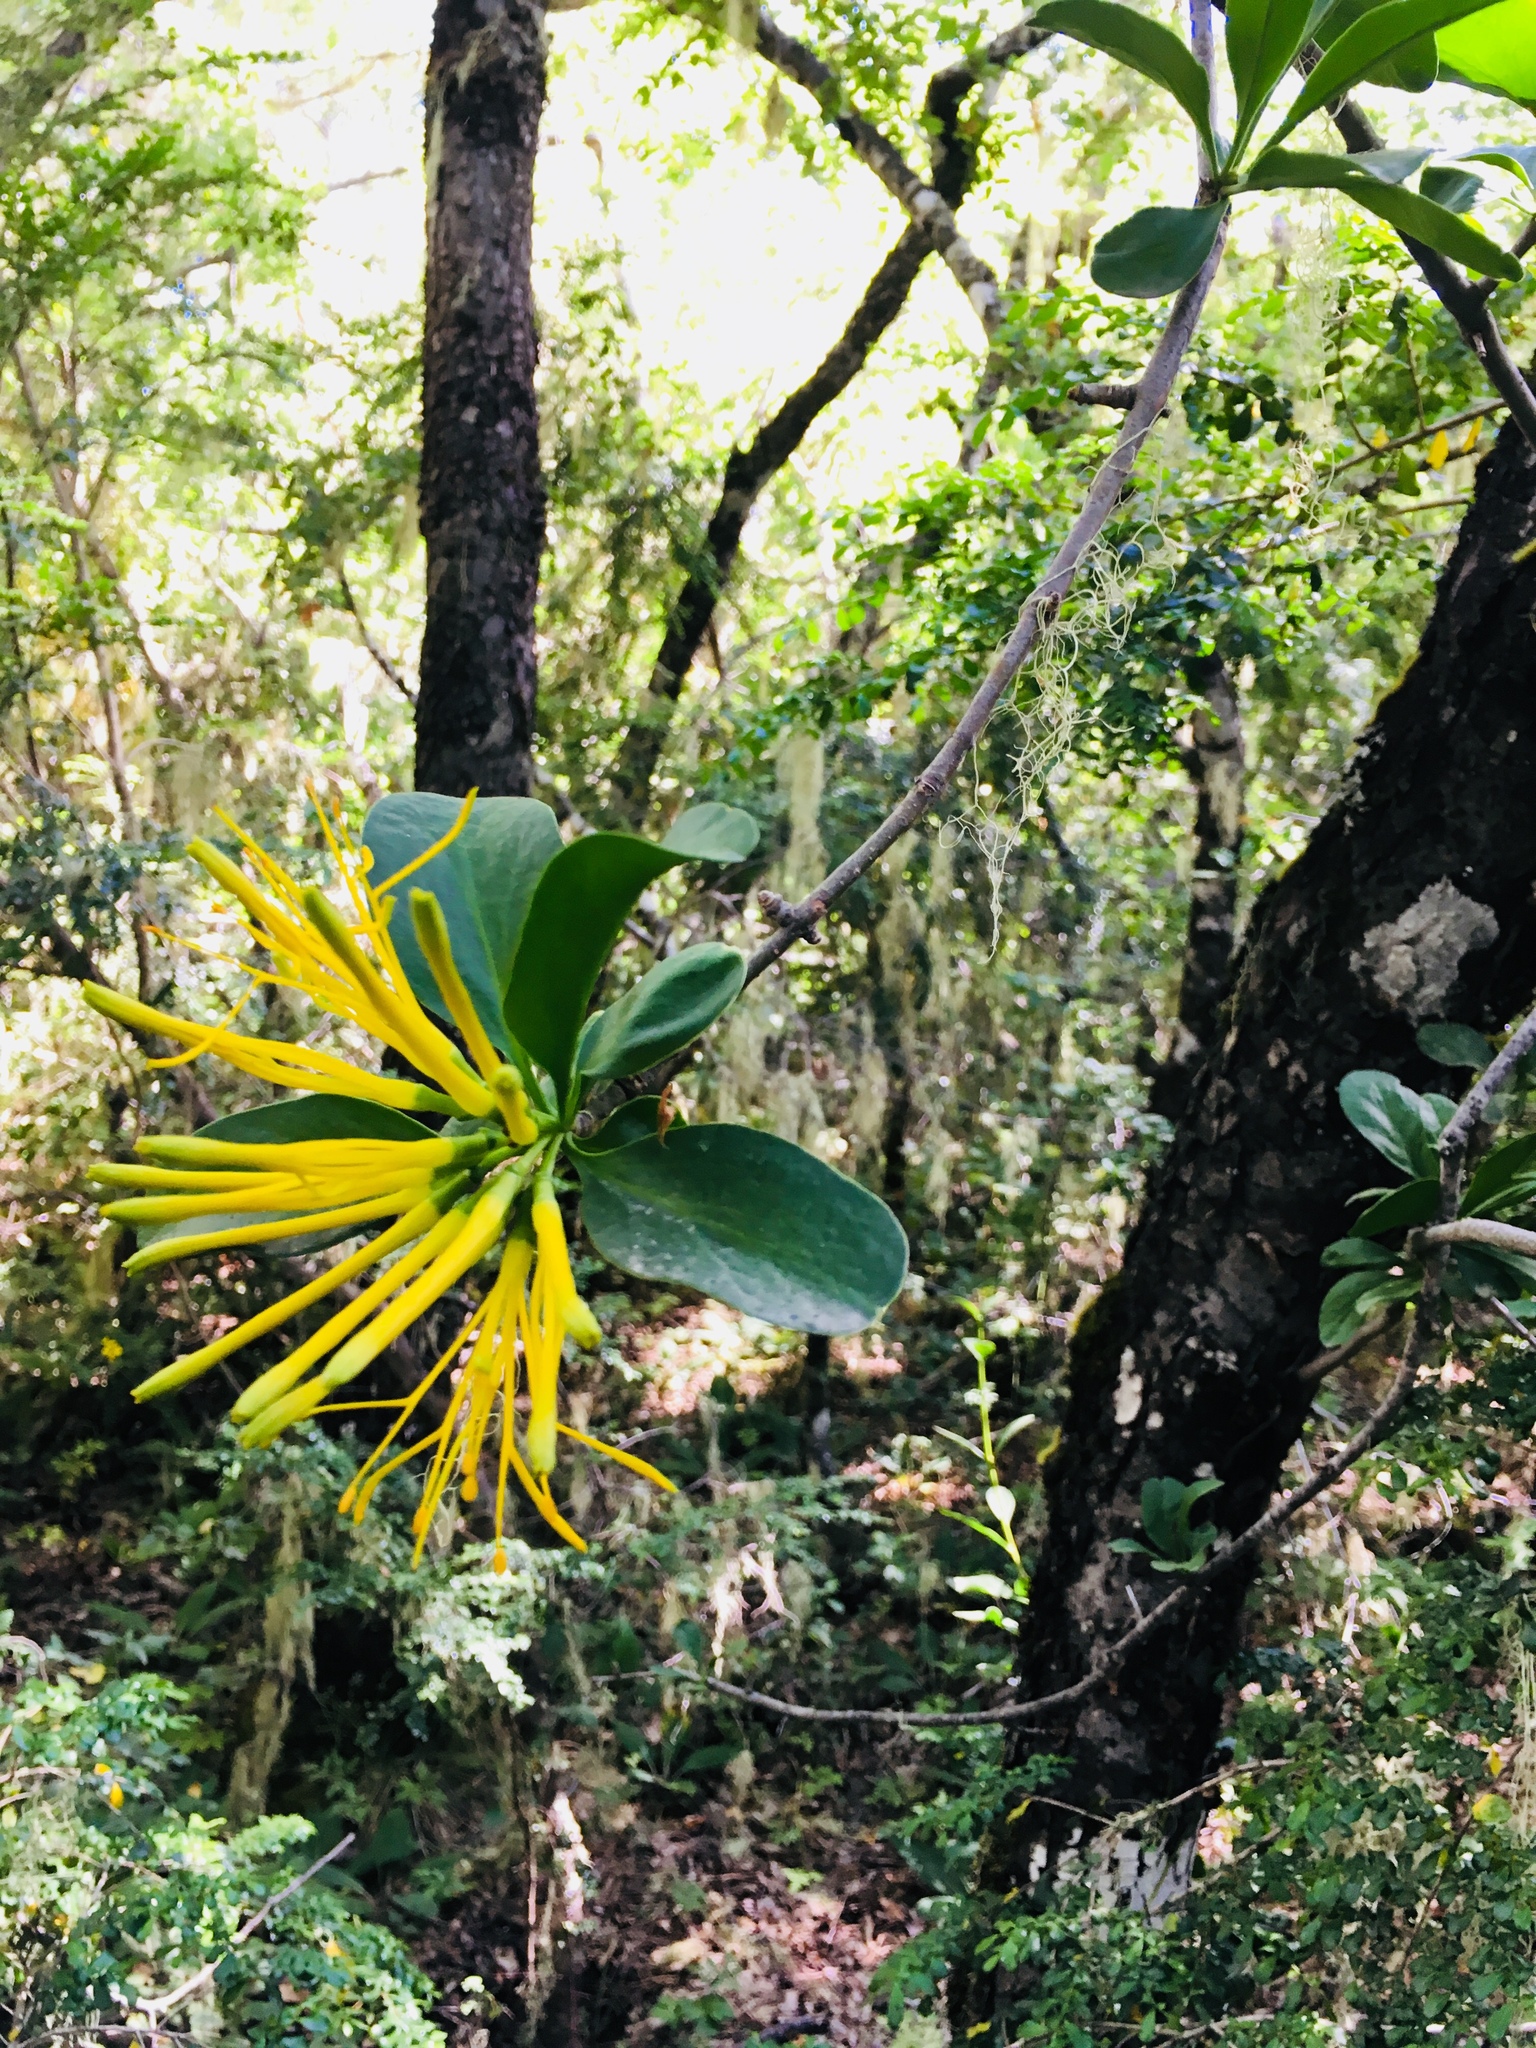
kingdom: Plantae
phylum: Tracheophyta
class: Magnoliopsida
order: Santalales
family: Loranthaceae
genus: Tristerix
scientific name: Tristerix corymbosus
